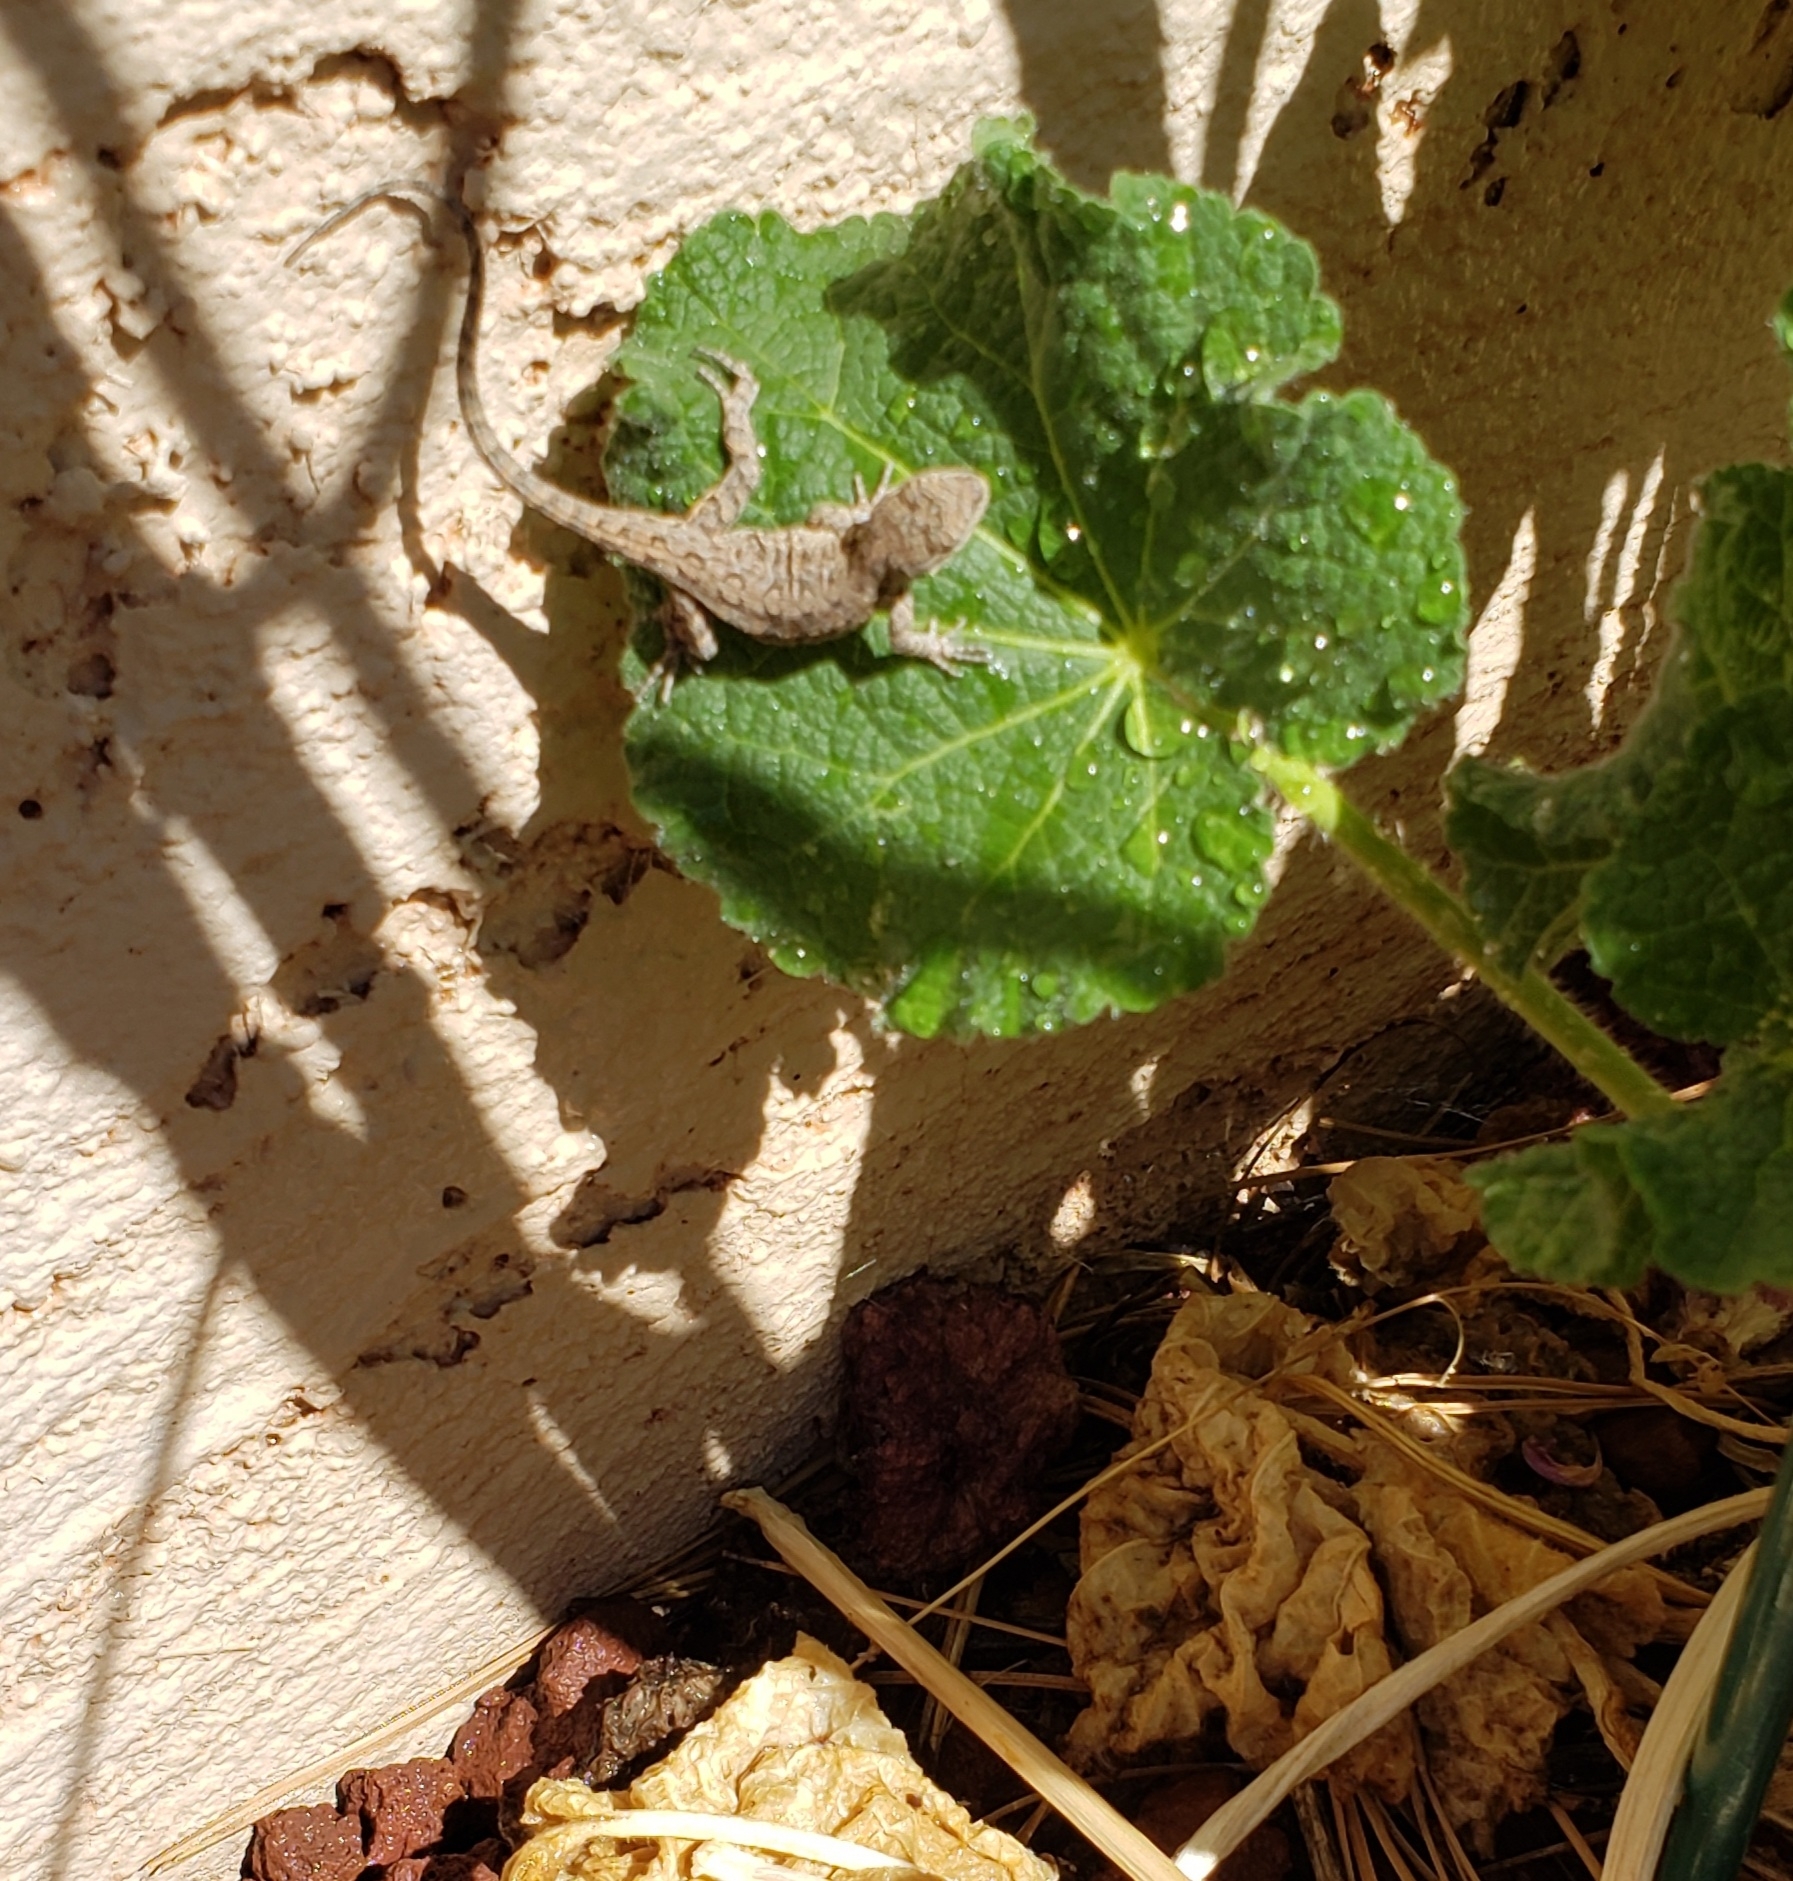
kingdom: Animalia
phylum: Chordata
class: Squamata
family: Phrynosomatidae
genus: Urosaurus
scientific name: Urosaurus ornatus
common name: Ornate tree lizard
